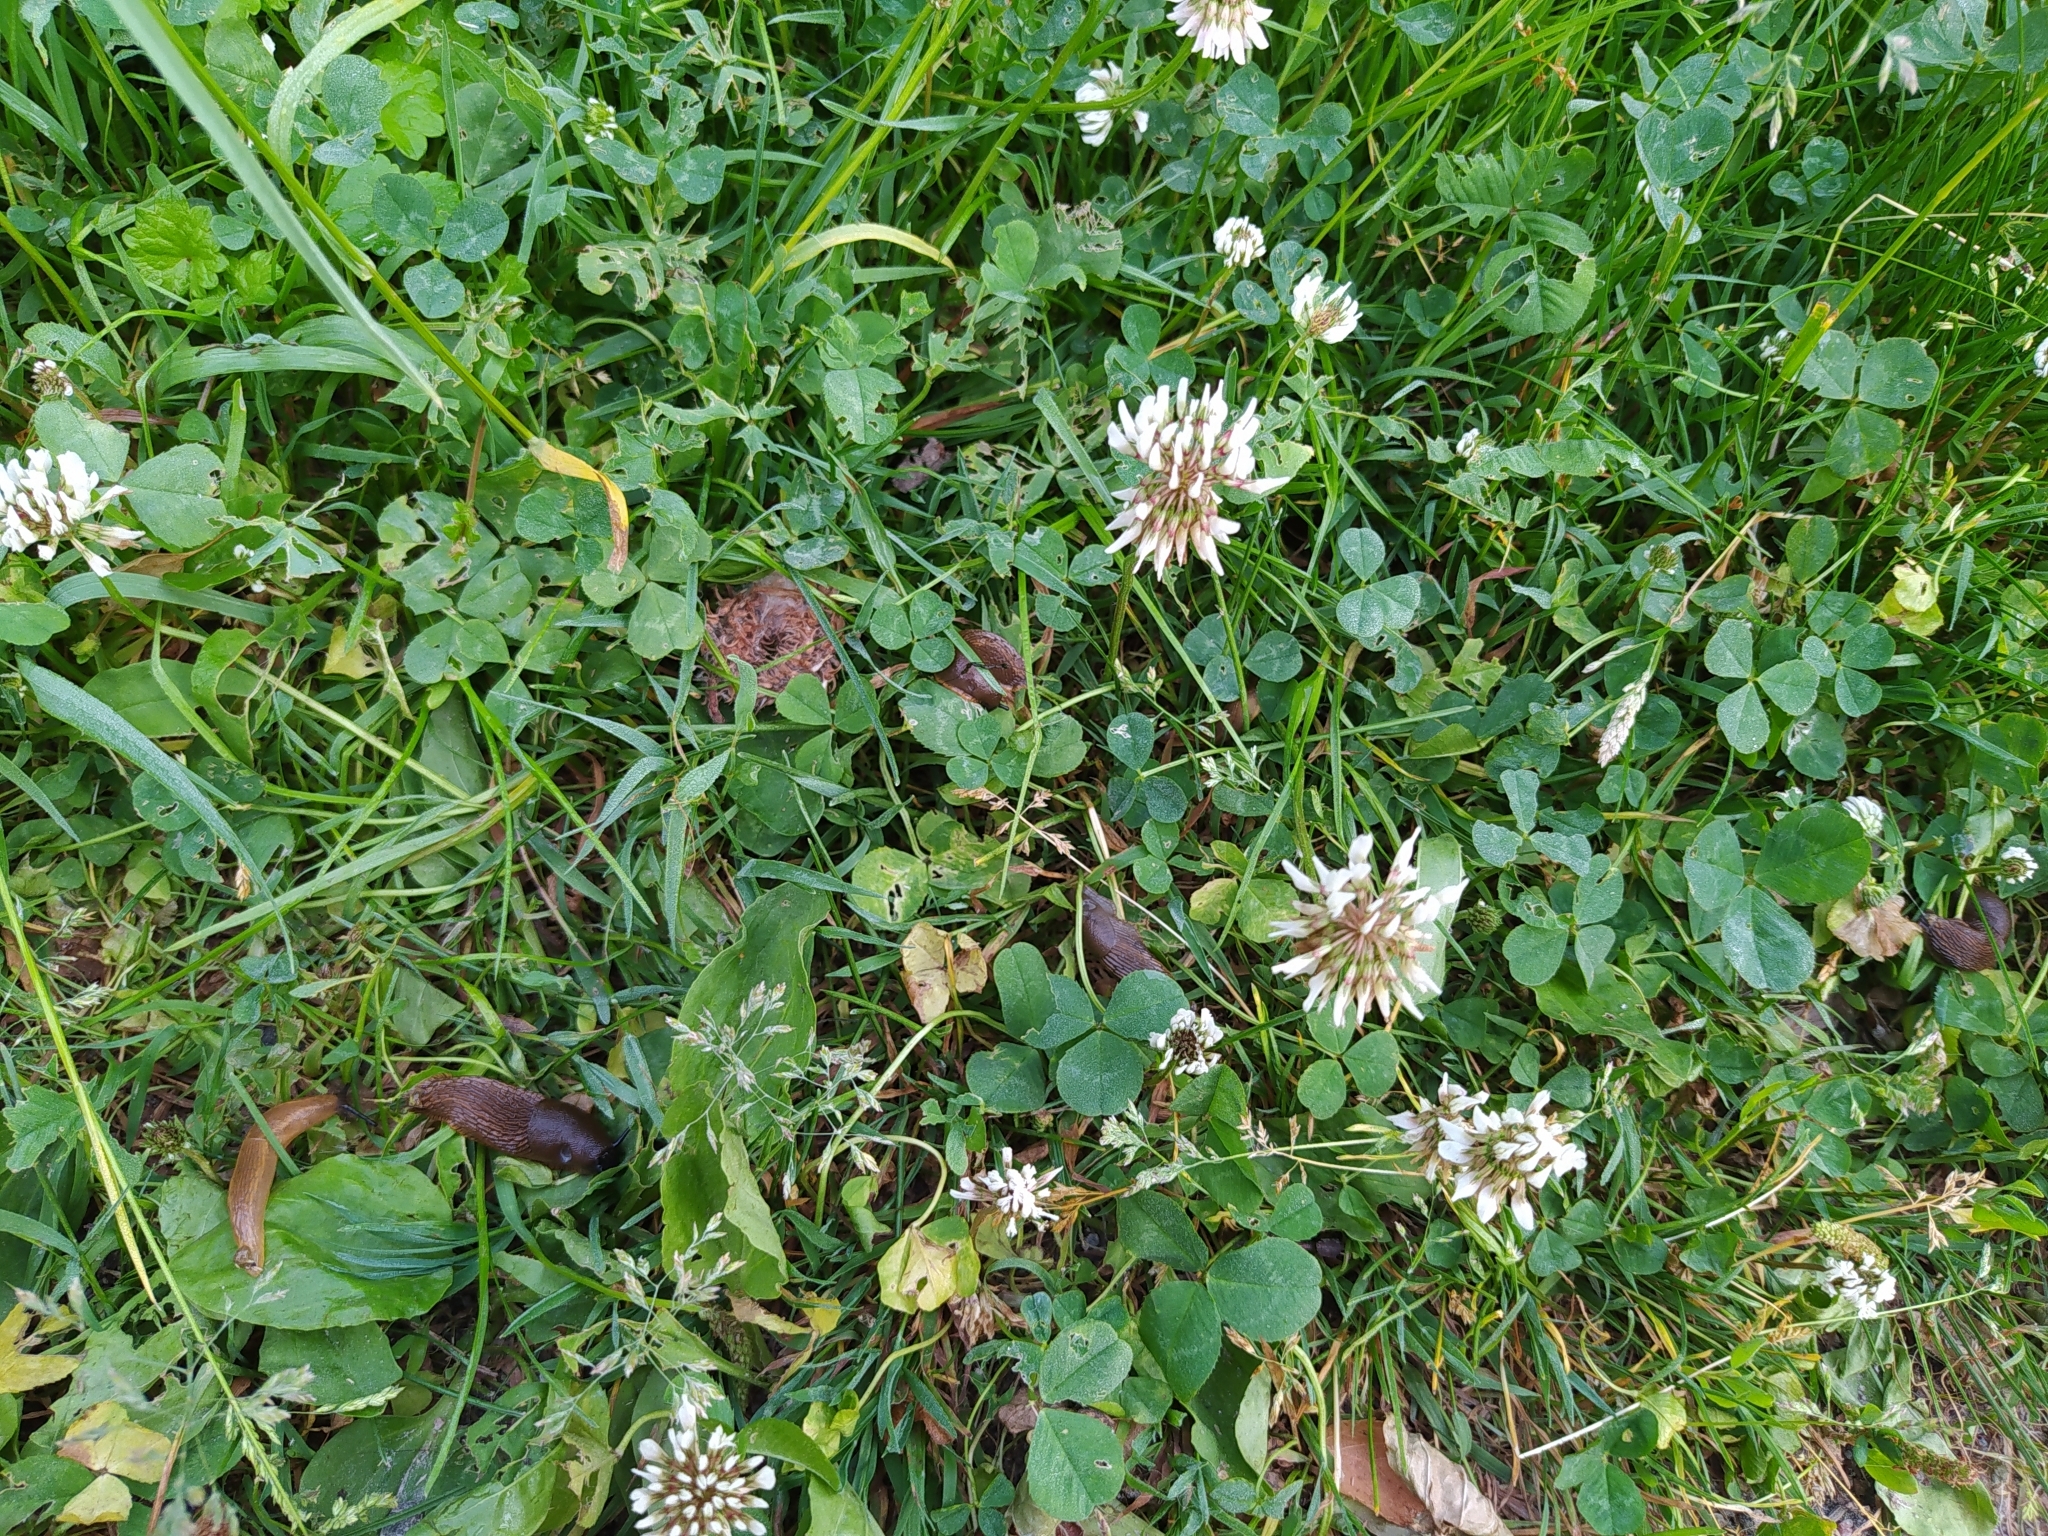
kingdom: Animalia
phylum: Mollusca
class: Gastropoda
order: Stylommatophora
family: Arionidae
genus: Arion
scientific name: Arion vulgaris
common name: Lusitanian slug
